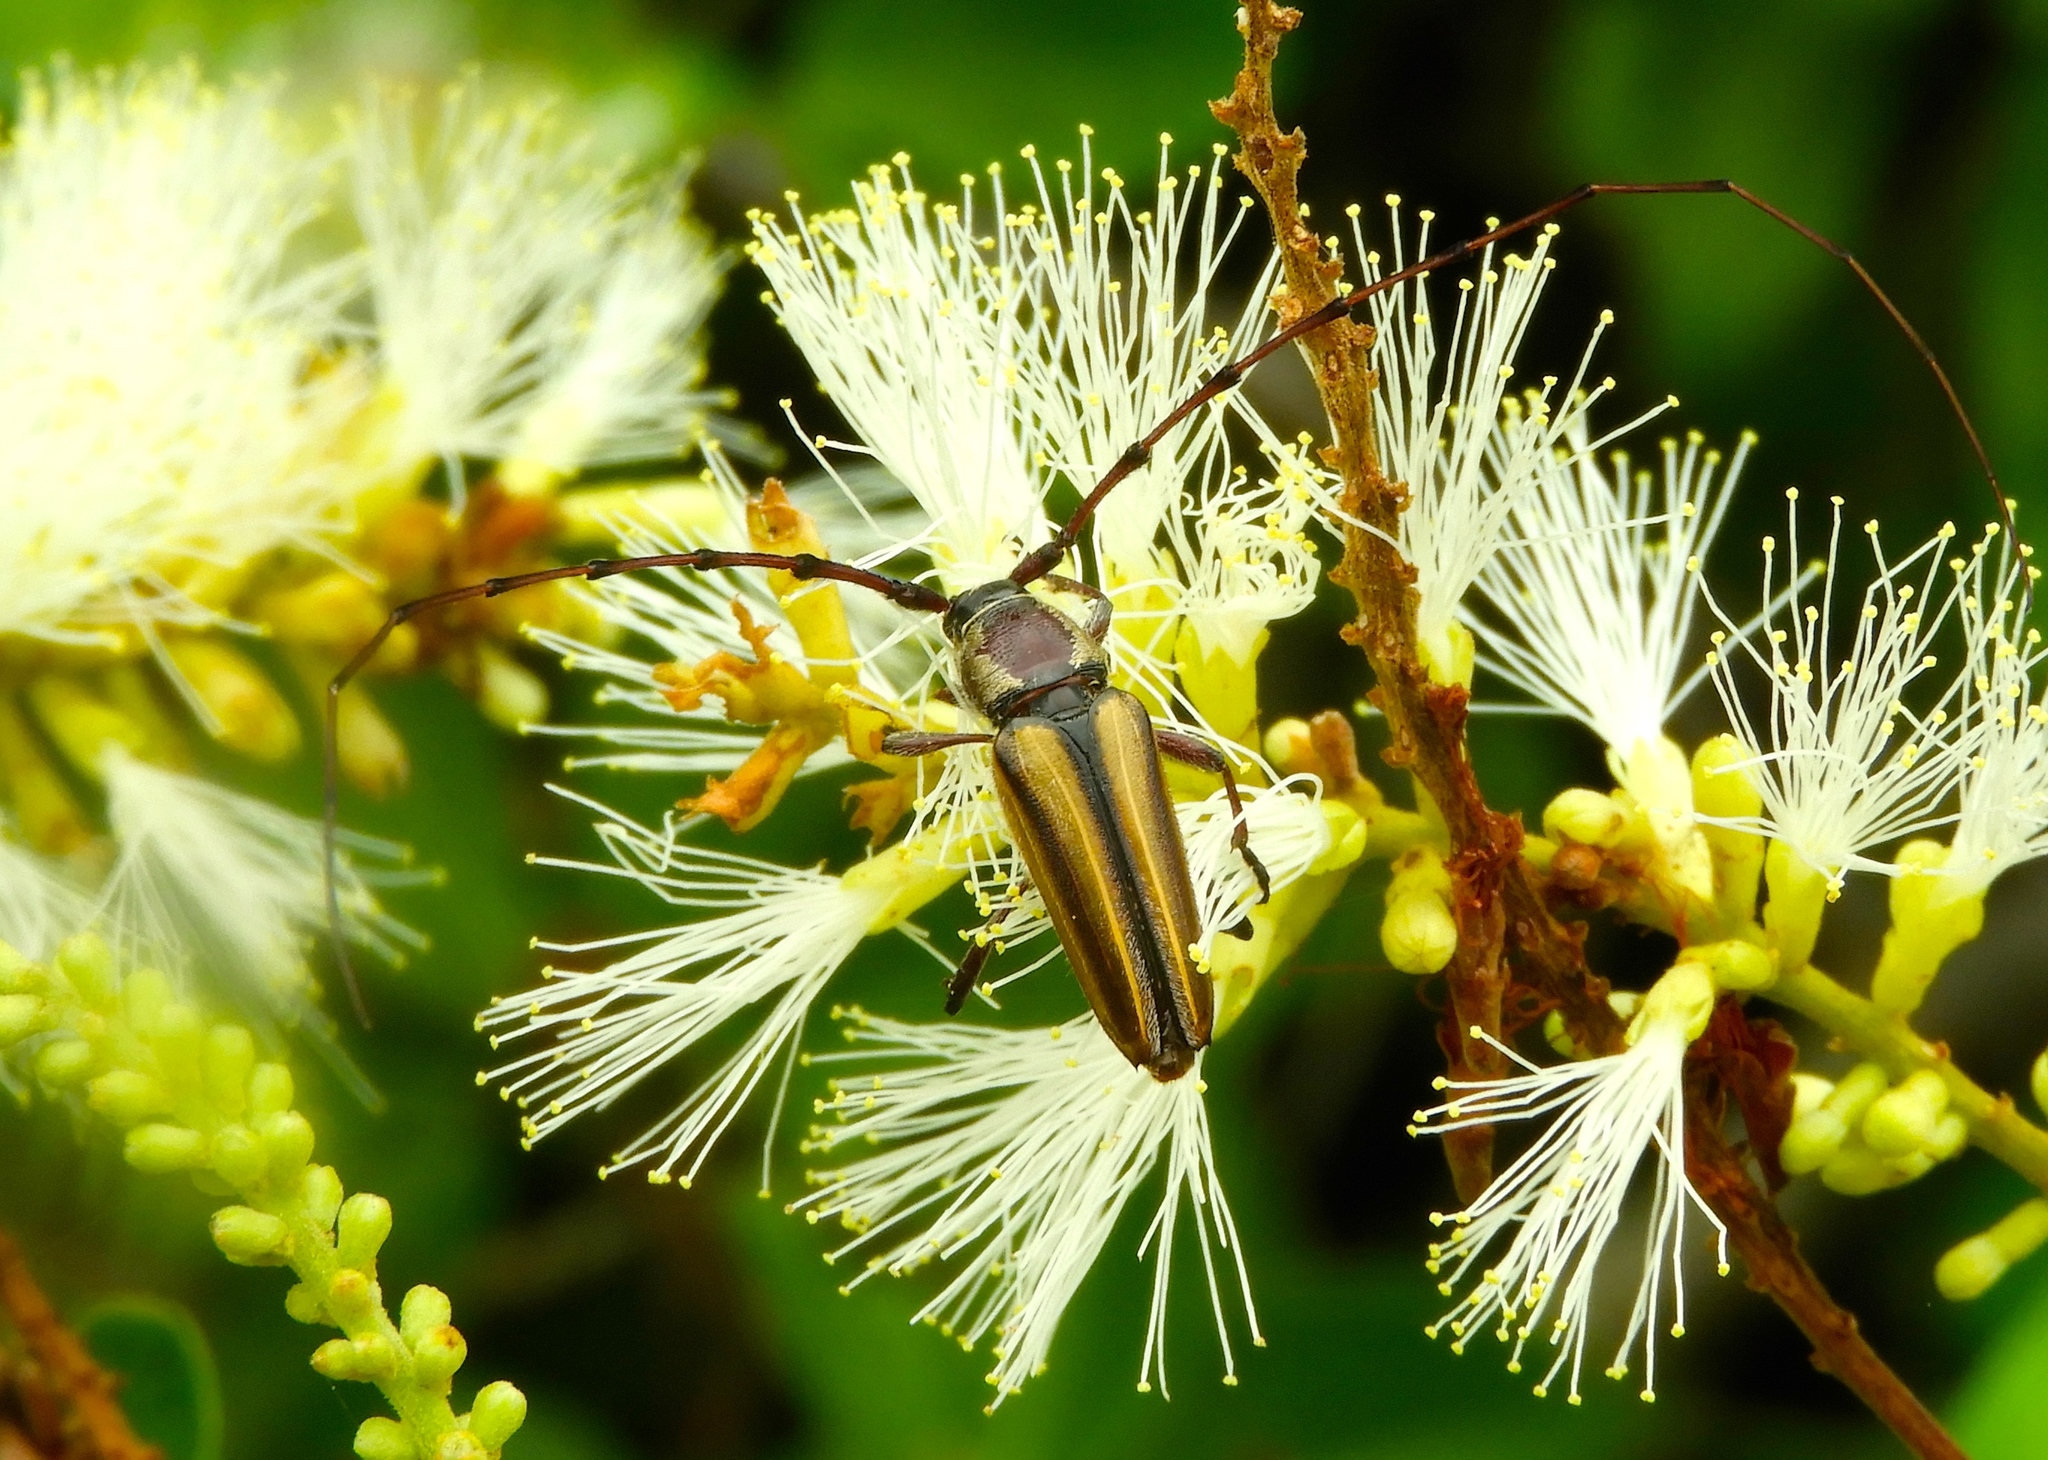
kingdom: Animalia
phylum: Arthropoda
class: Insecta
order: Coleoptera
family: Cerambycidae
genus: Sphaenothecus
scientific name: Sphaenothecus
